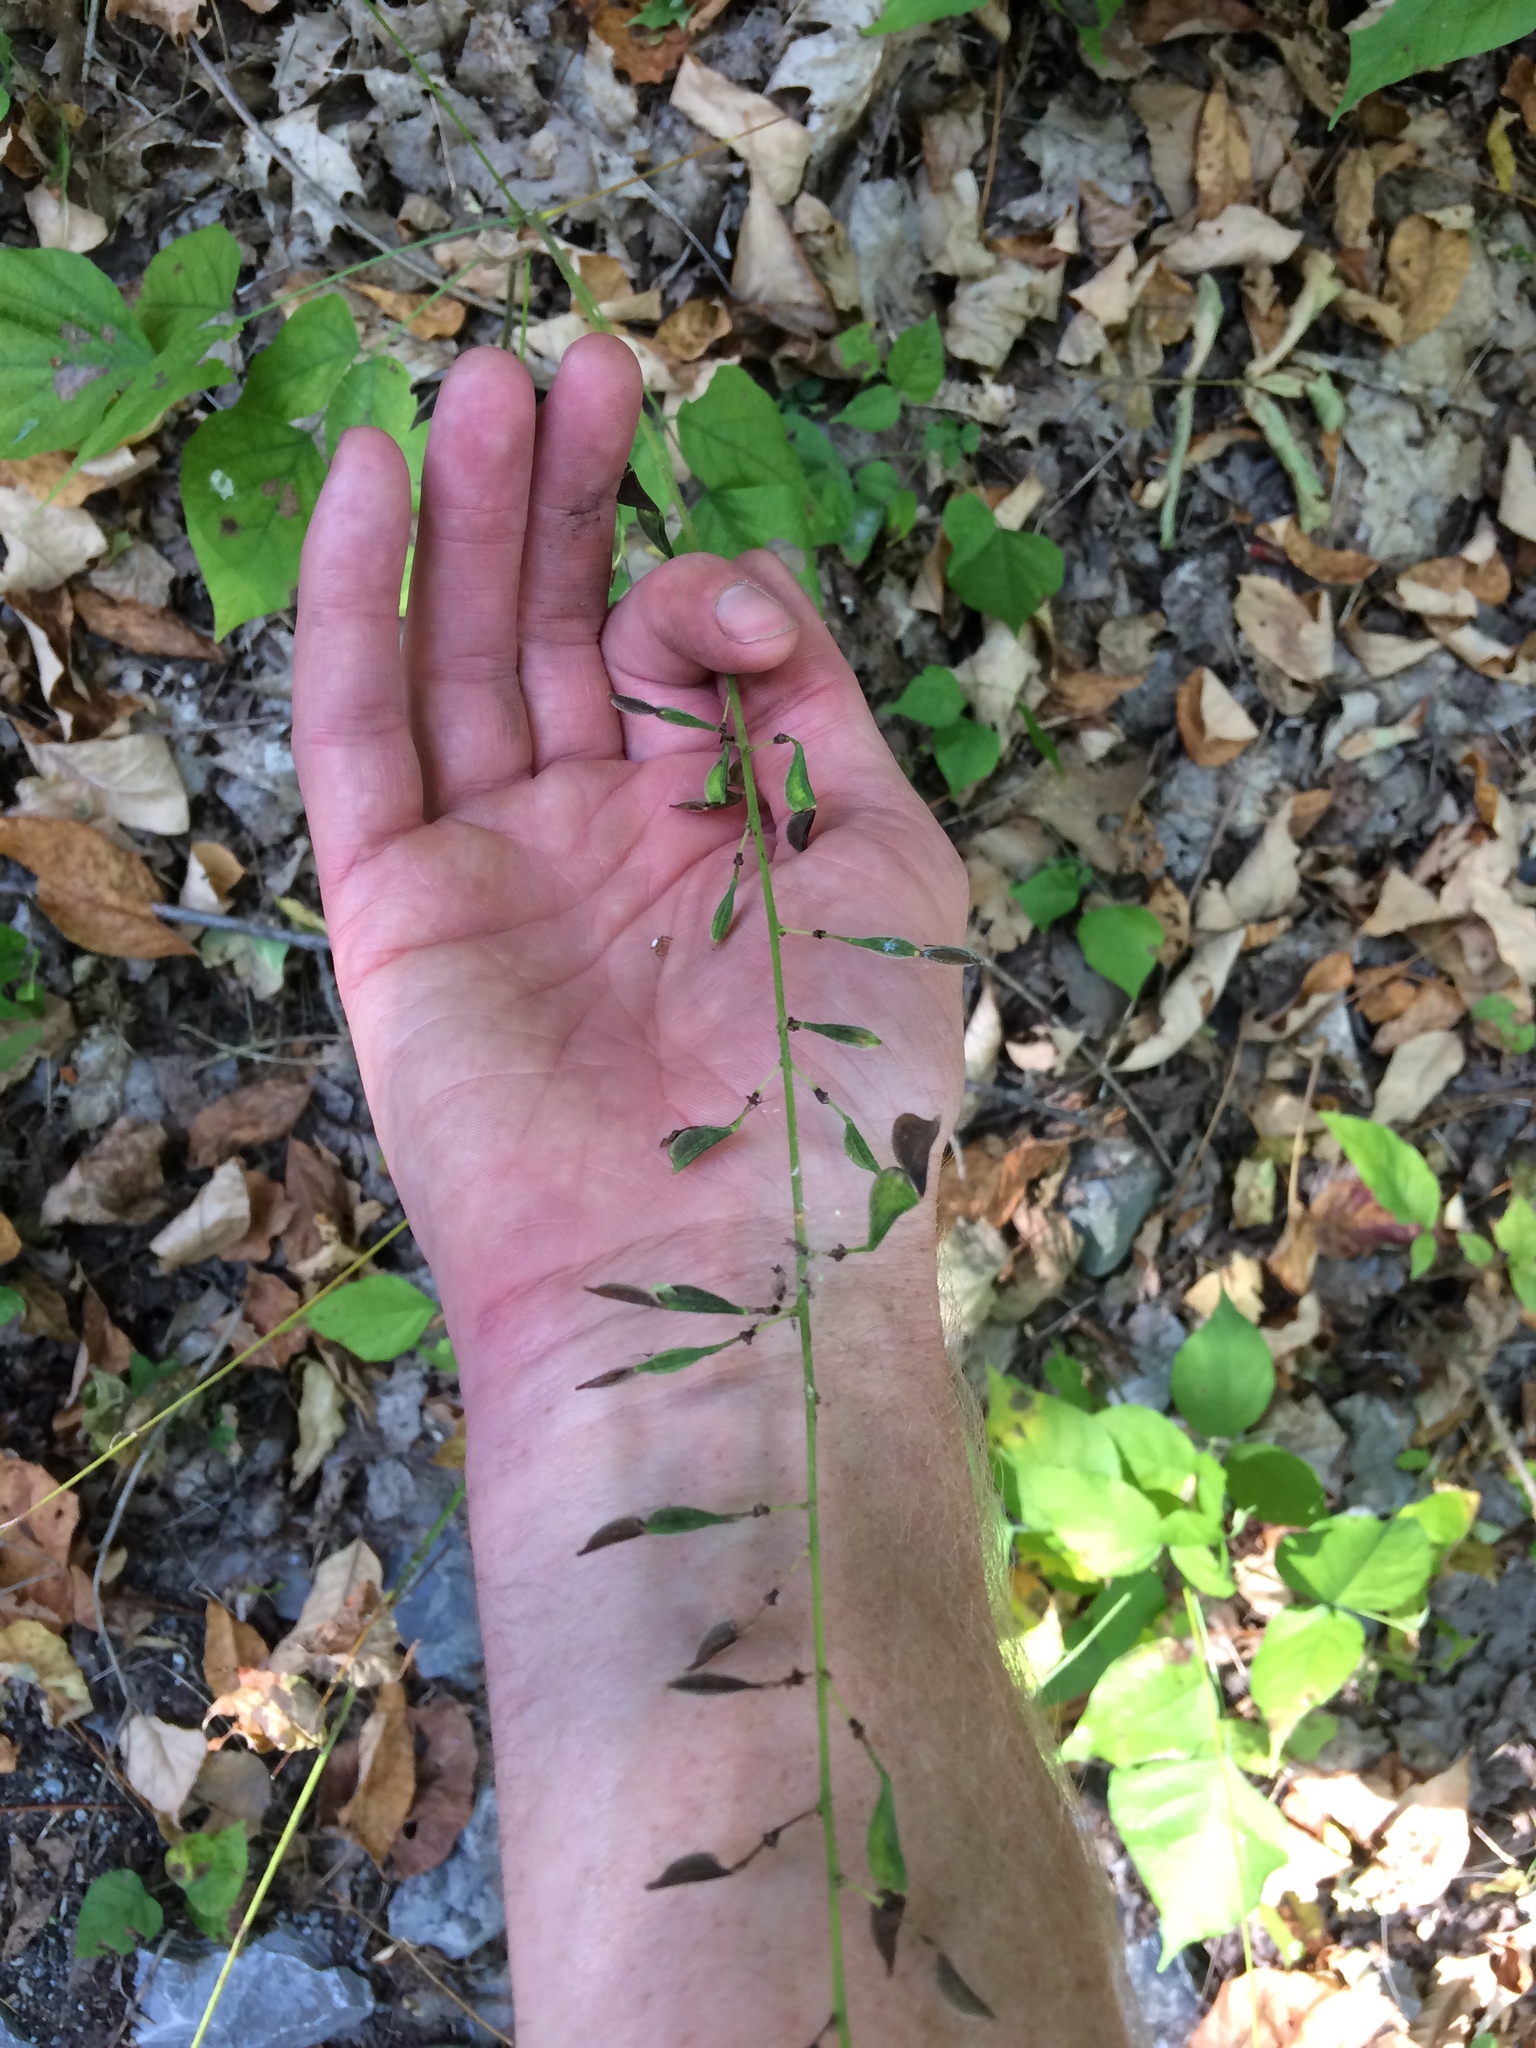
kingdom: Plantae
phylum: Tracheophyta
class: Magnoliopsida
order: Fabales
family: Fabaceae
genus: Hylodesmum
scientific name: Hylodesmum glutinosum
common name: Clustered-leaved tick-trefoil
